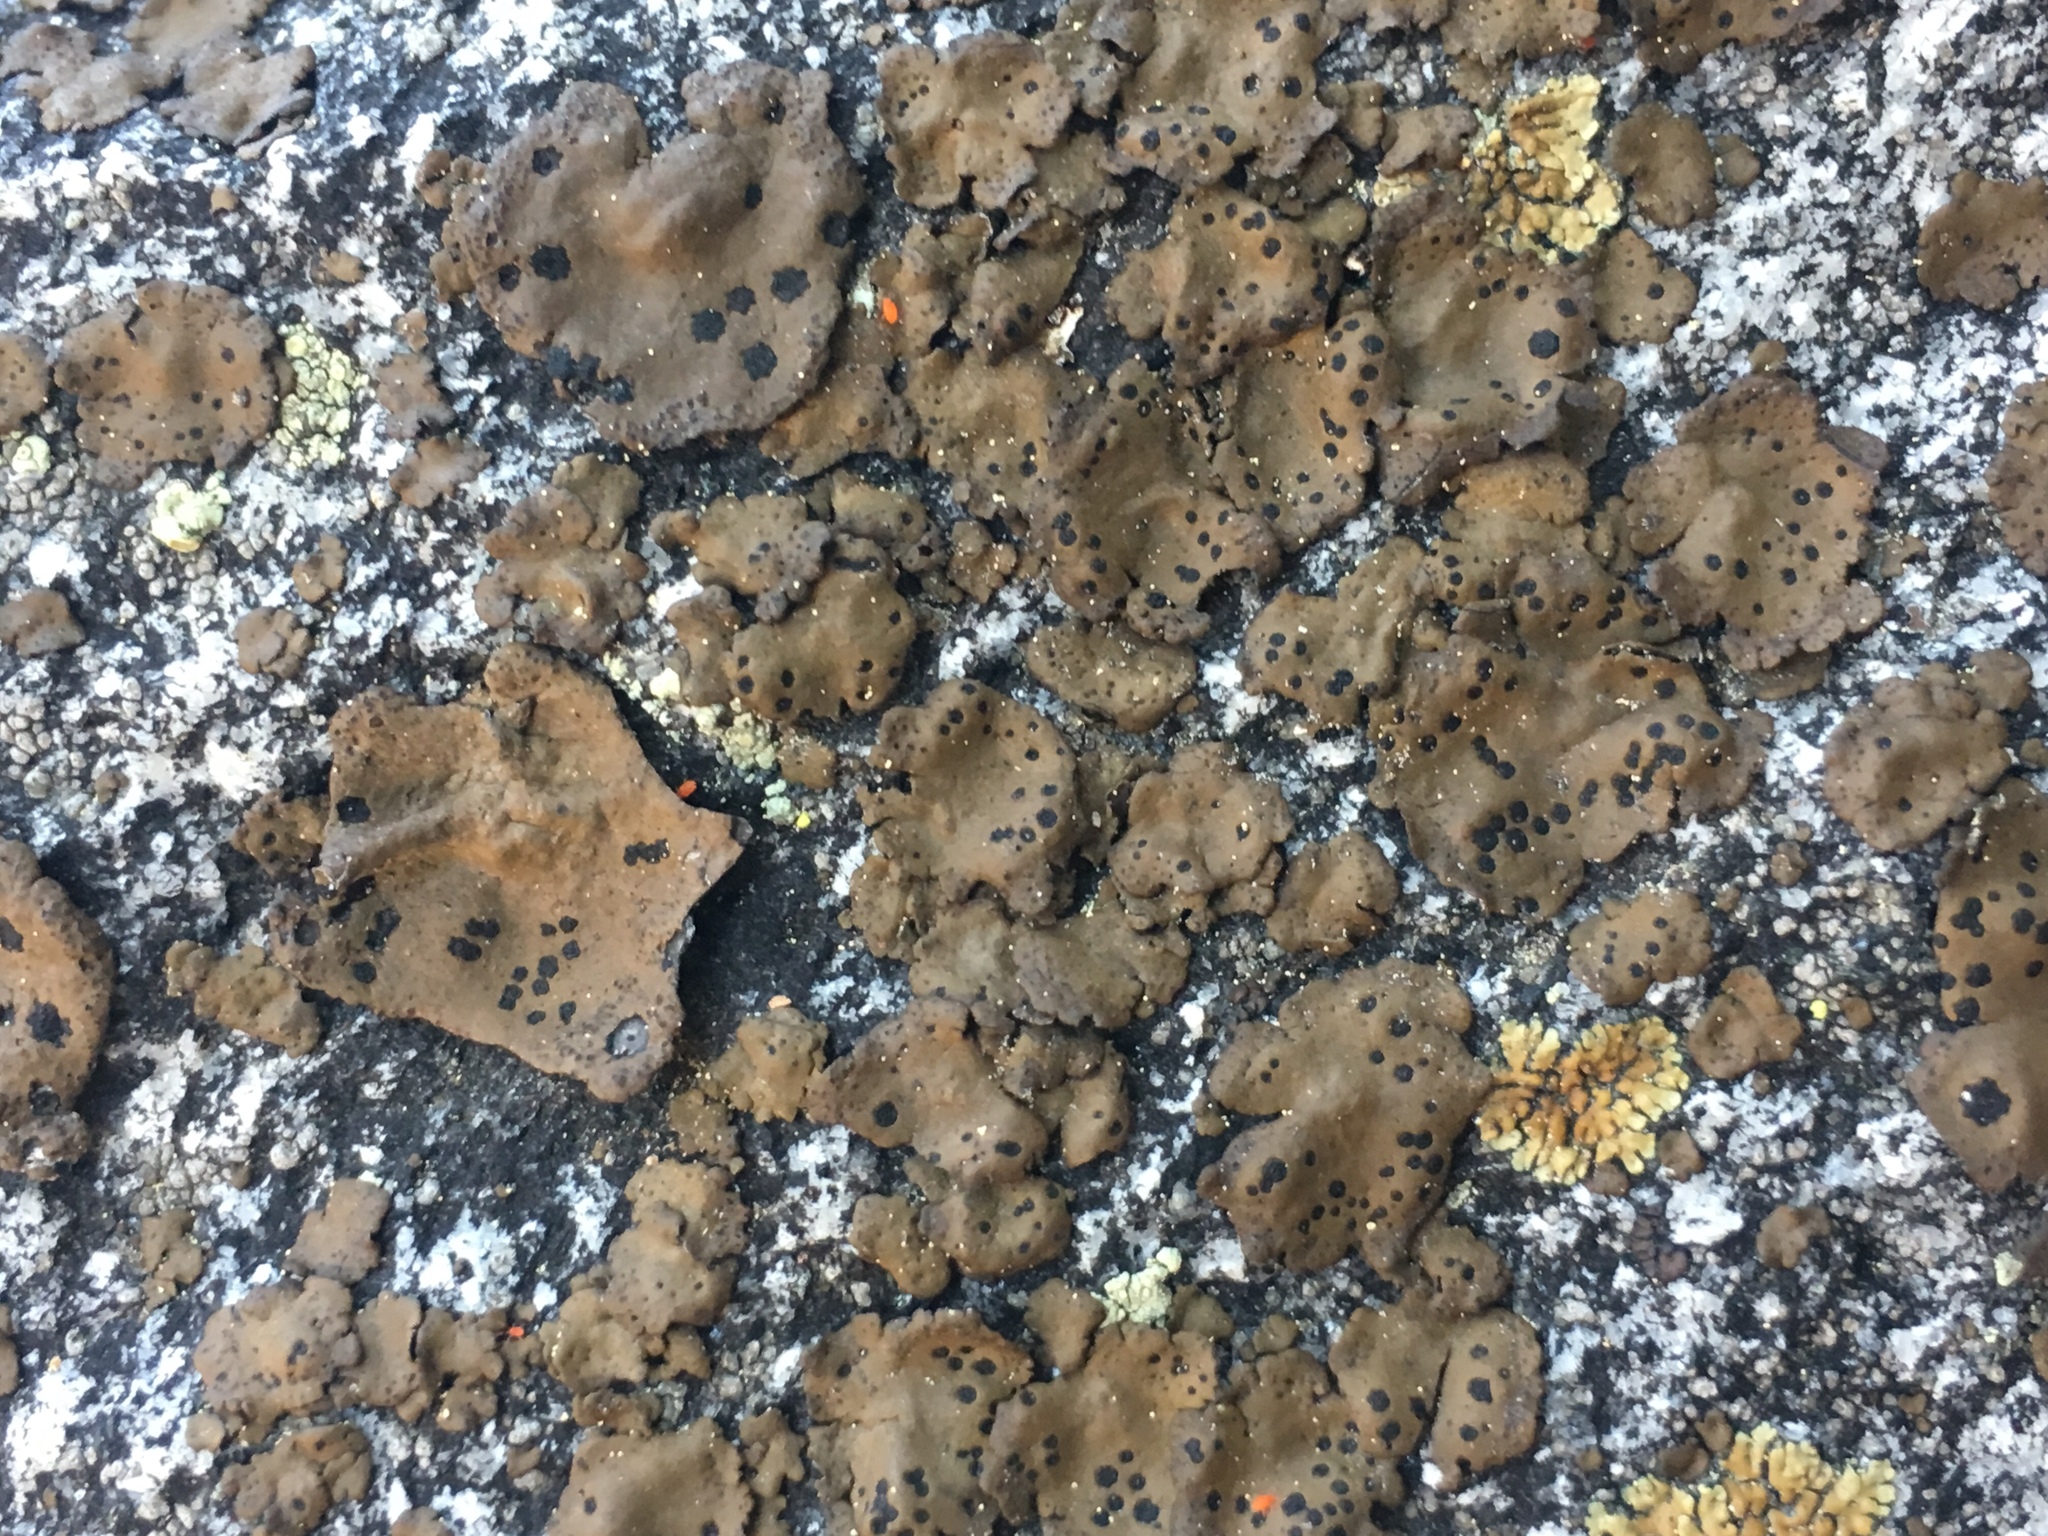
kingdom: Fungi
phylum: Ascomycota
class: Lecanoromycetes
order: Umbilicariales
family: Umbilicariaceae
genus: Umbilicaria
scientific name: Umbilicaria phaea
